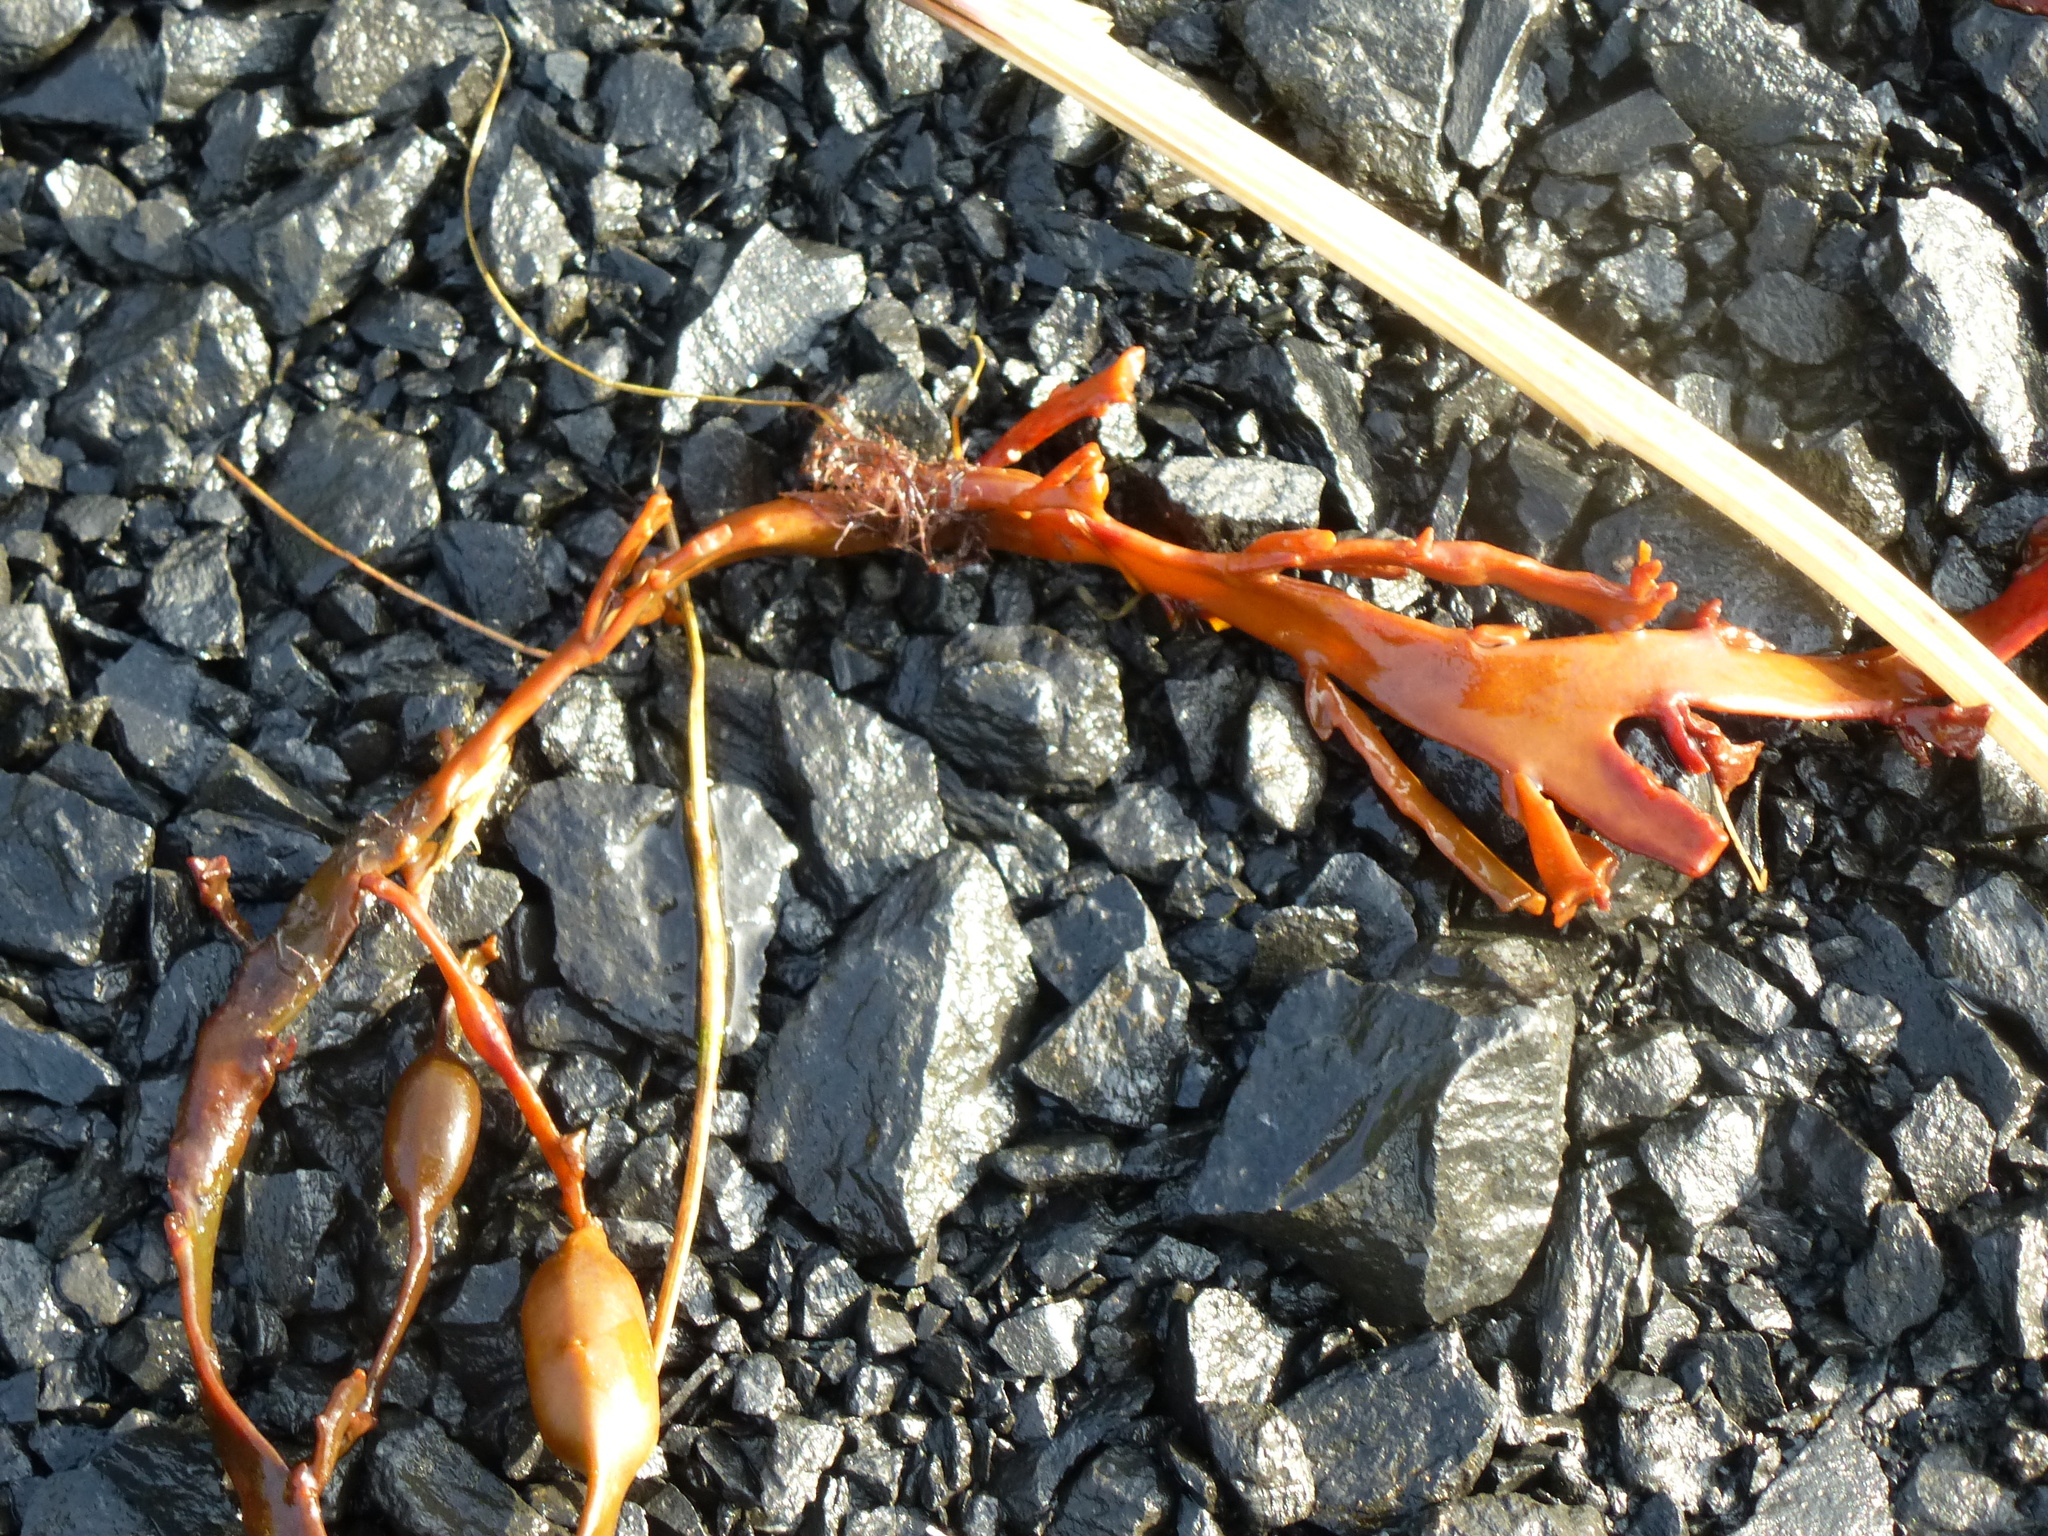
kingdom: Chromista
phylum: Ochrophyta
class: Phaeophyceae
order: Fucales
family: Fucaceae
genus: Ascophyllum
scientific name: Ascophyllum nodosum
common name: Knotted wrack
